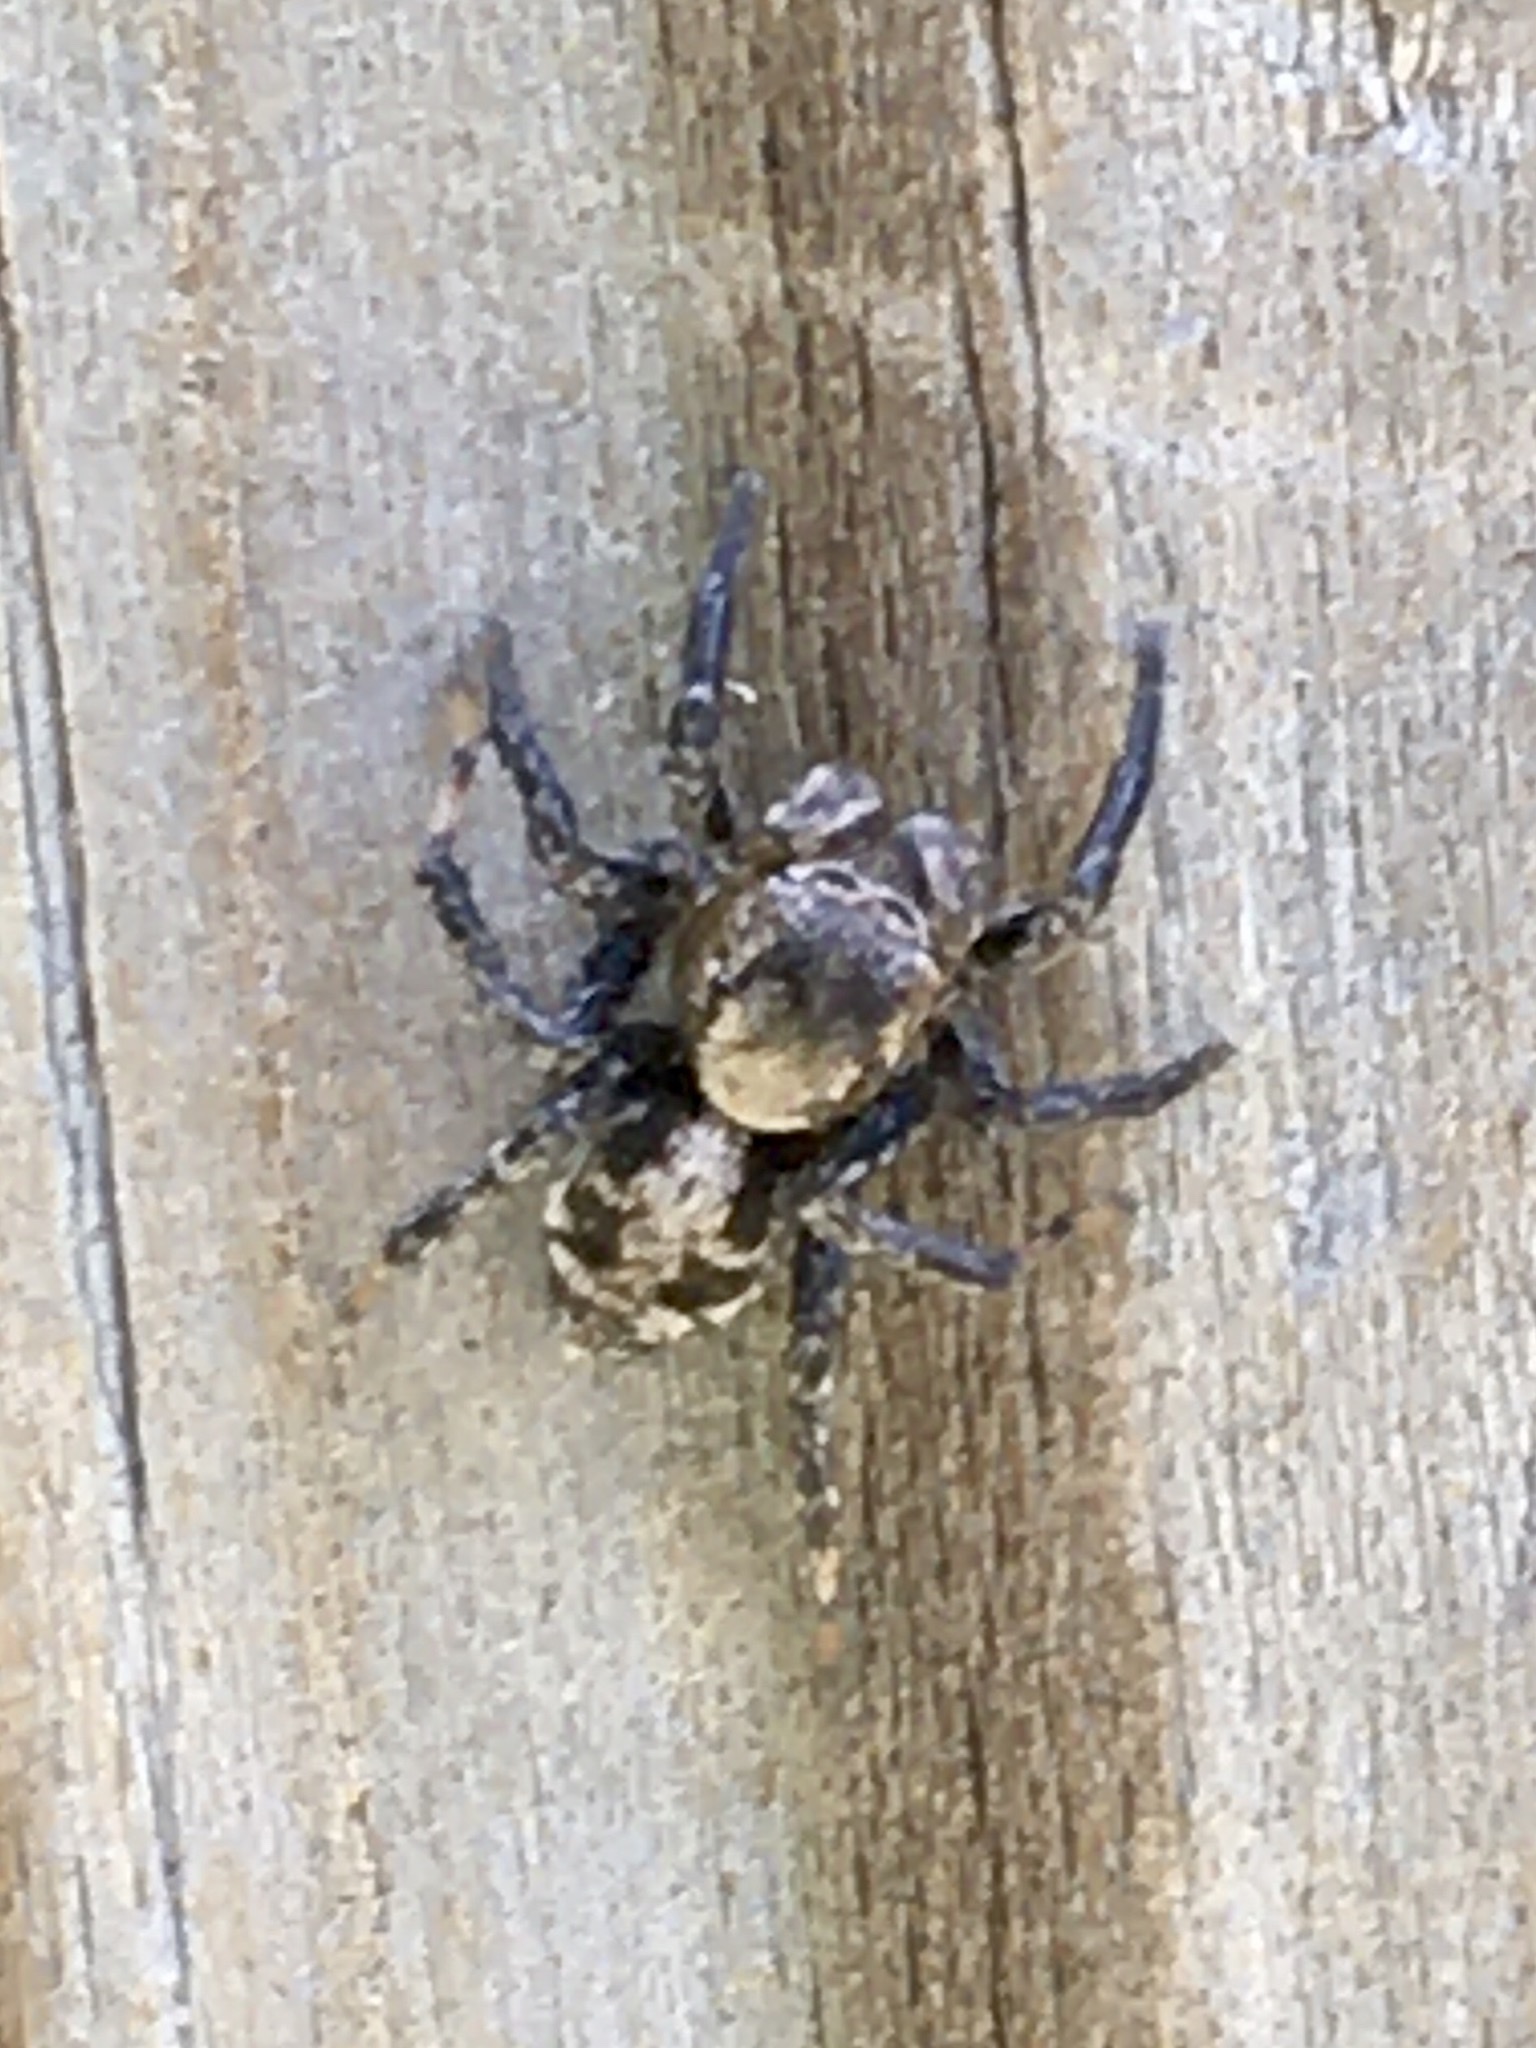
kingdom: Animalia
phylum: Arthropoda
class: Arachnida
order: Araneae
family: Salticidae
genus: Naphrys
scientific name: Naphrys pulex
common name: Flea jumping spider
